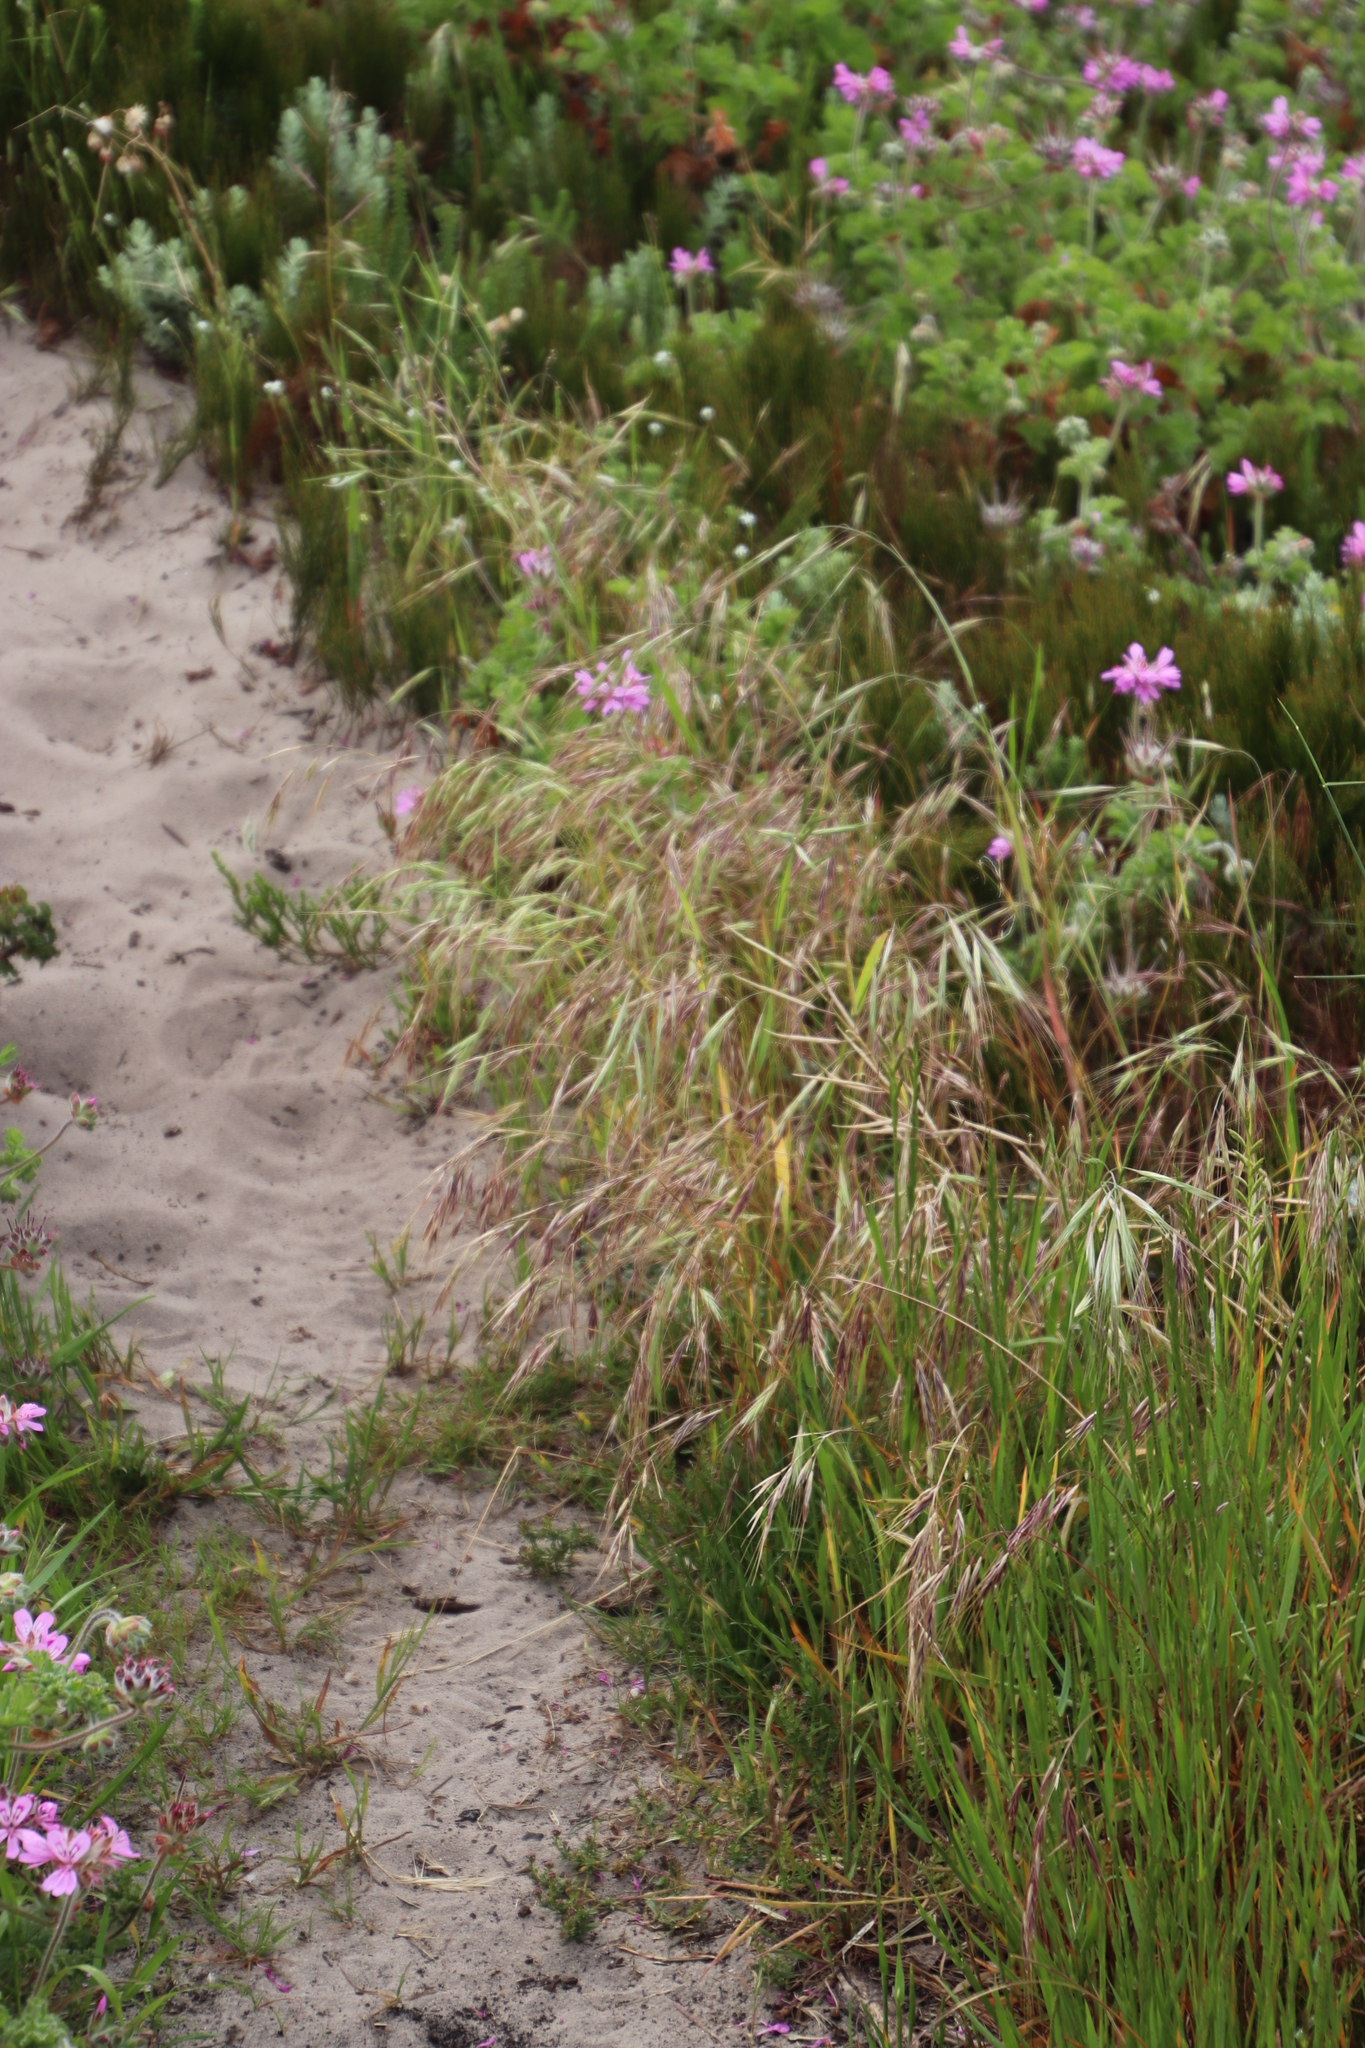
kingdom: Plantae
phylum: Tracheophyta
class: Liliopsida
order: Poales
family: Poaceae
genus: Bromus
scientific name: Bromus diandrus
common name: Ripgut brome
